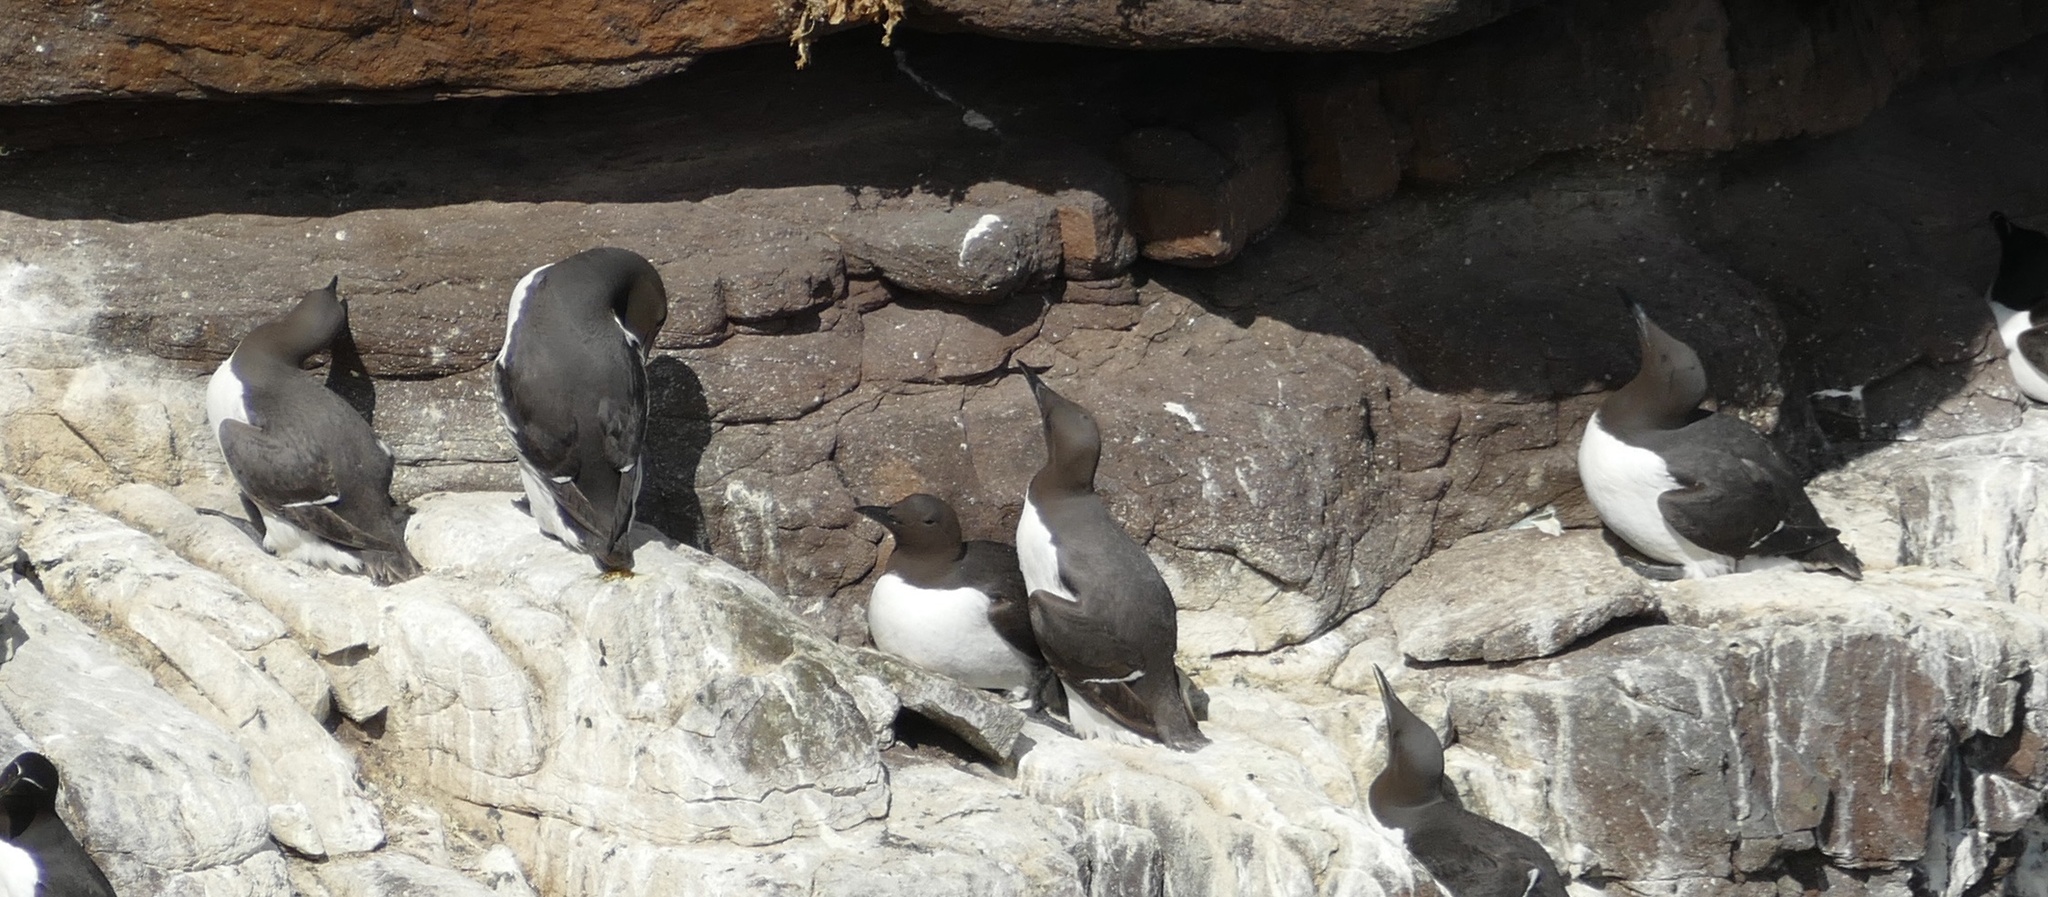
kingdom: Animalia
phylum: Chordata
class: Aves
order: Charadriiformes
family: Alcidae
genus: Uria
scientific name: Uria aalge
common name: Common murre
